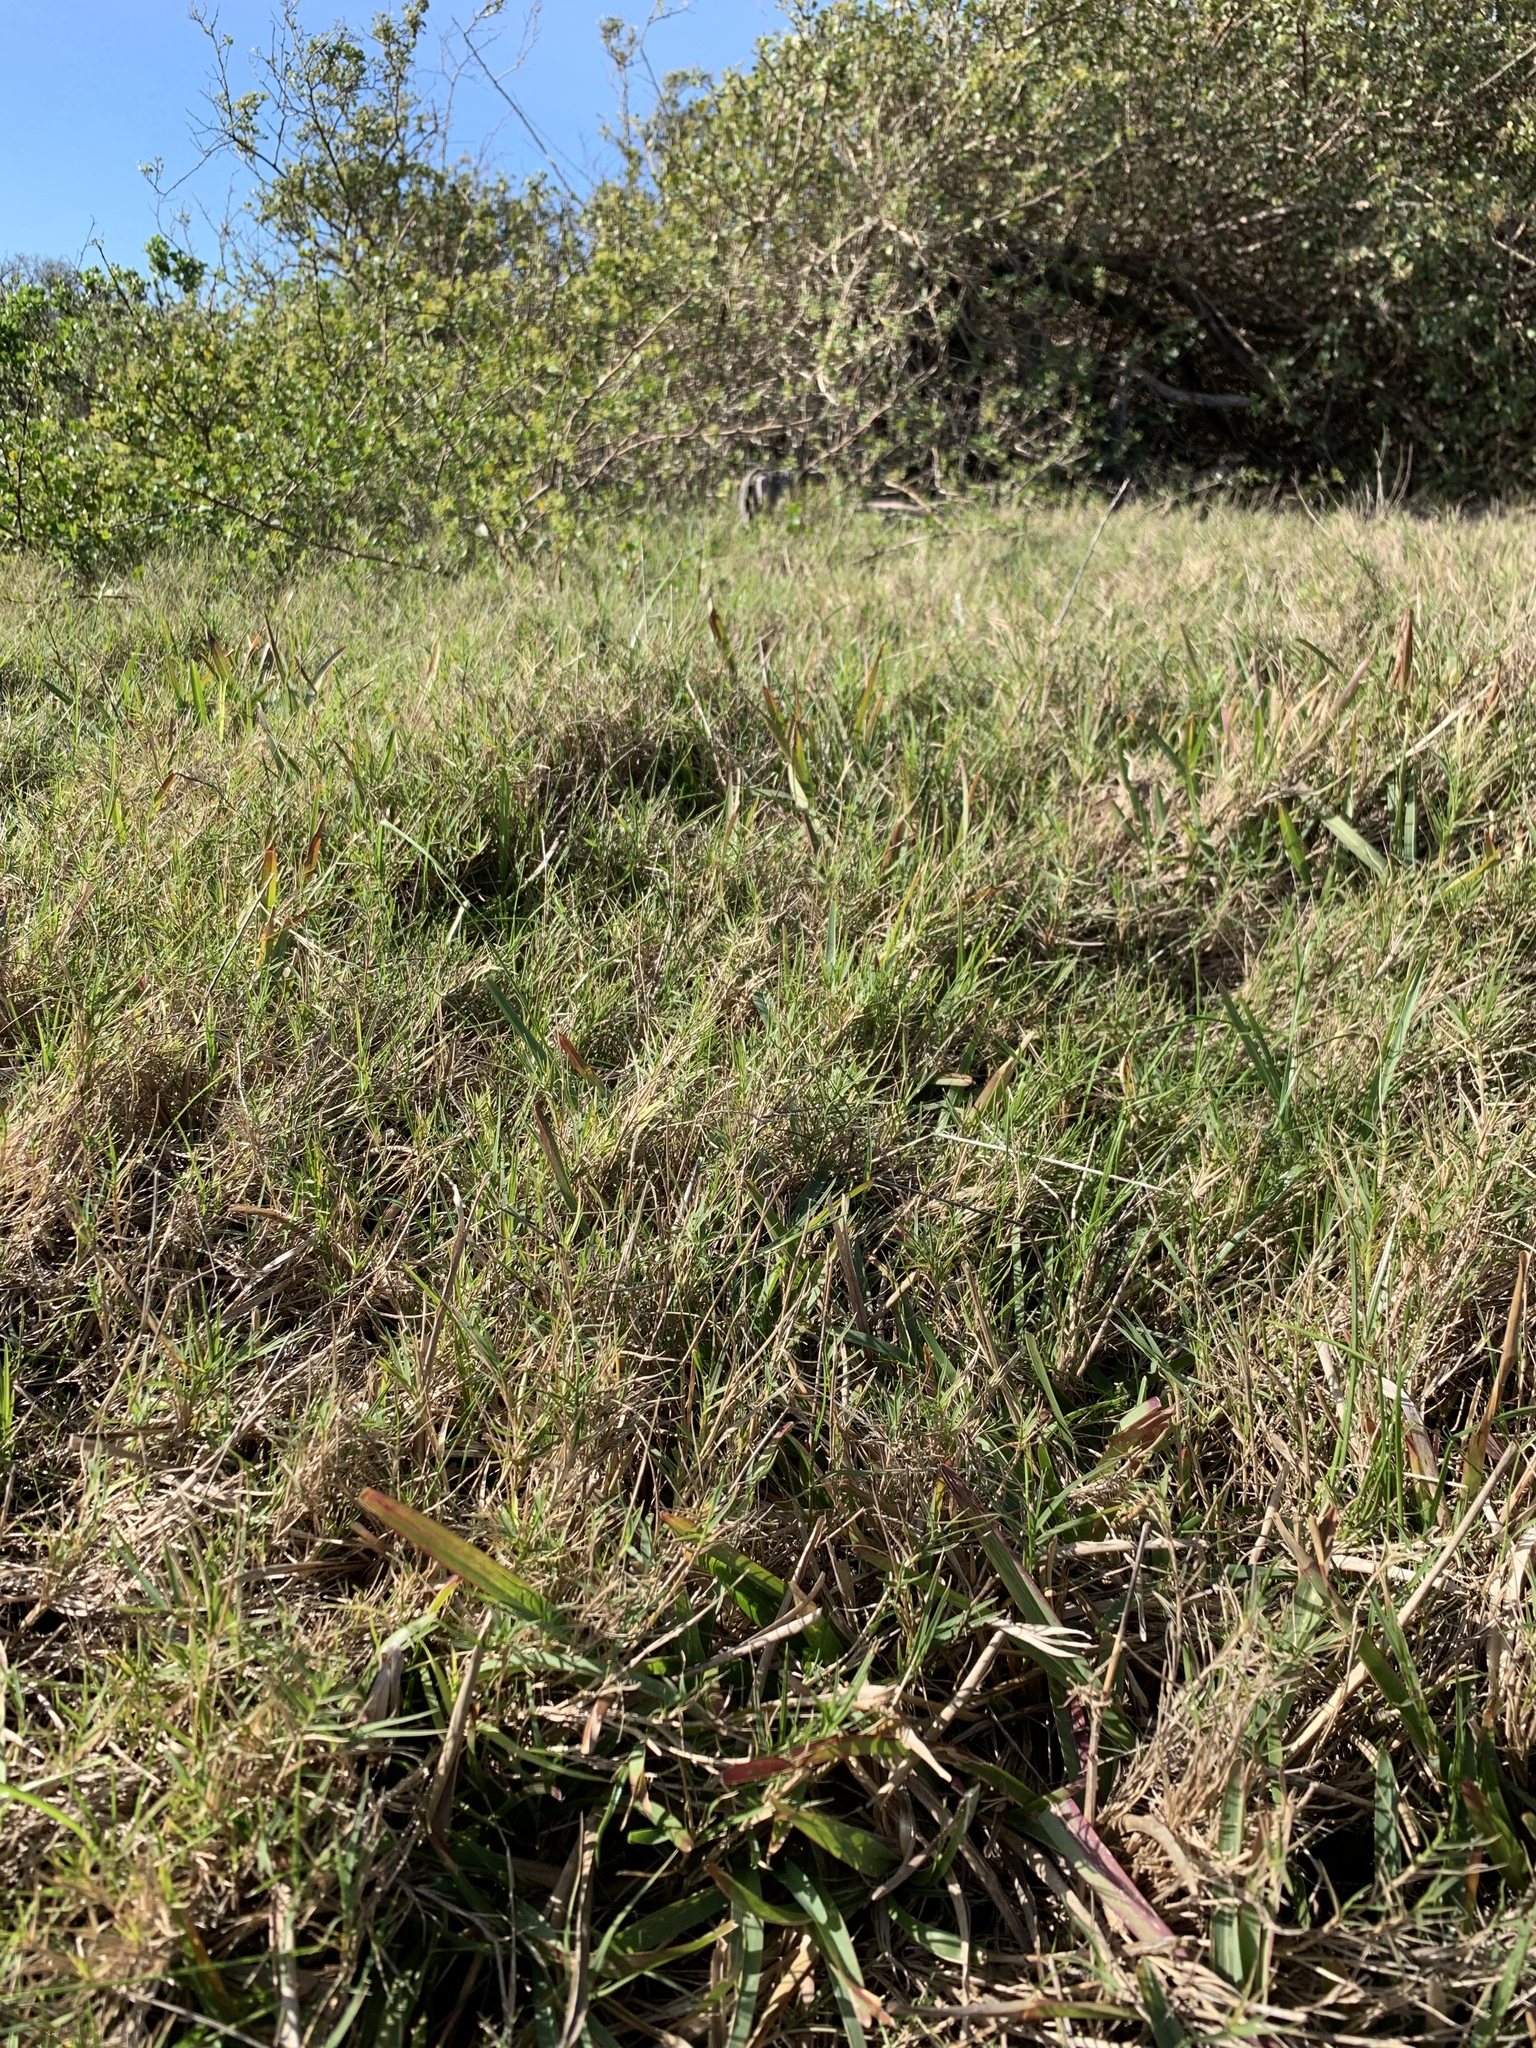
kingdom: Plantae
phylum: Tracheophyta
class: Liliopsida
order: Poales
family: Poaceae
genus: Cynodon
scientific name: Cynodon dactylon
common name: Bermuda grass
